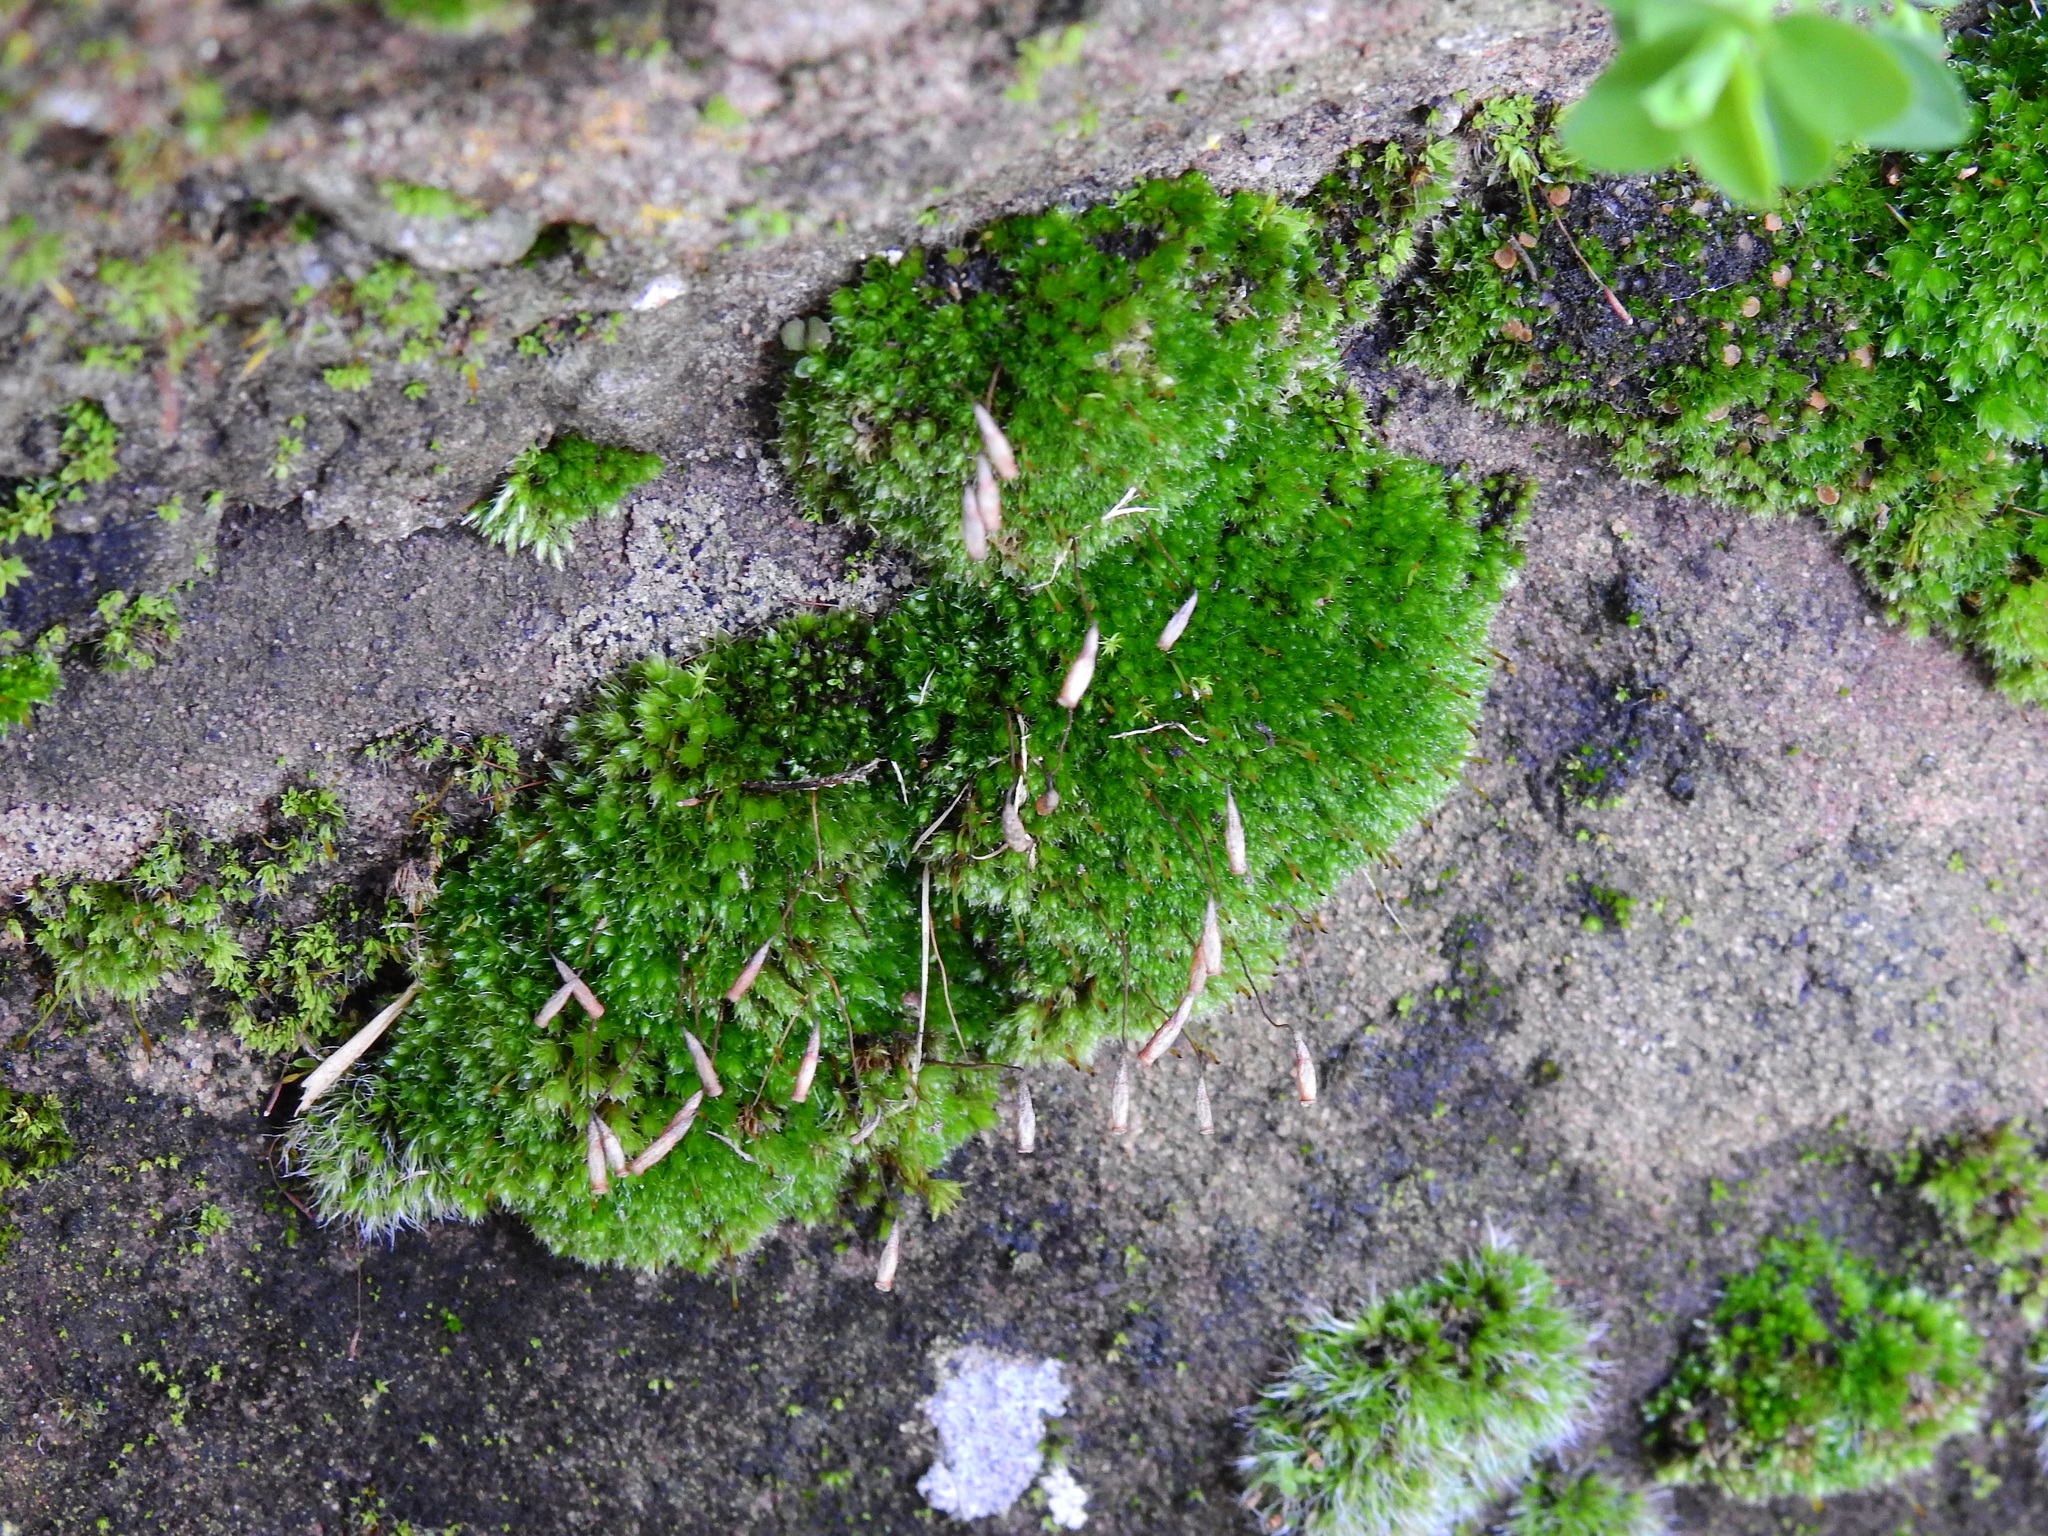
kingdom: Plantae
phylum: Bryophyta
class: Bryopsida
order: Bryales
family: Bryaceae
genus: Rosulabryum
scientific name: Rosulabryum capillare
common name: Capillary thread-moss
